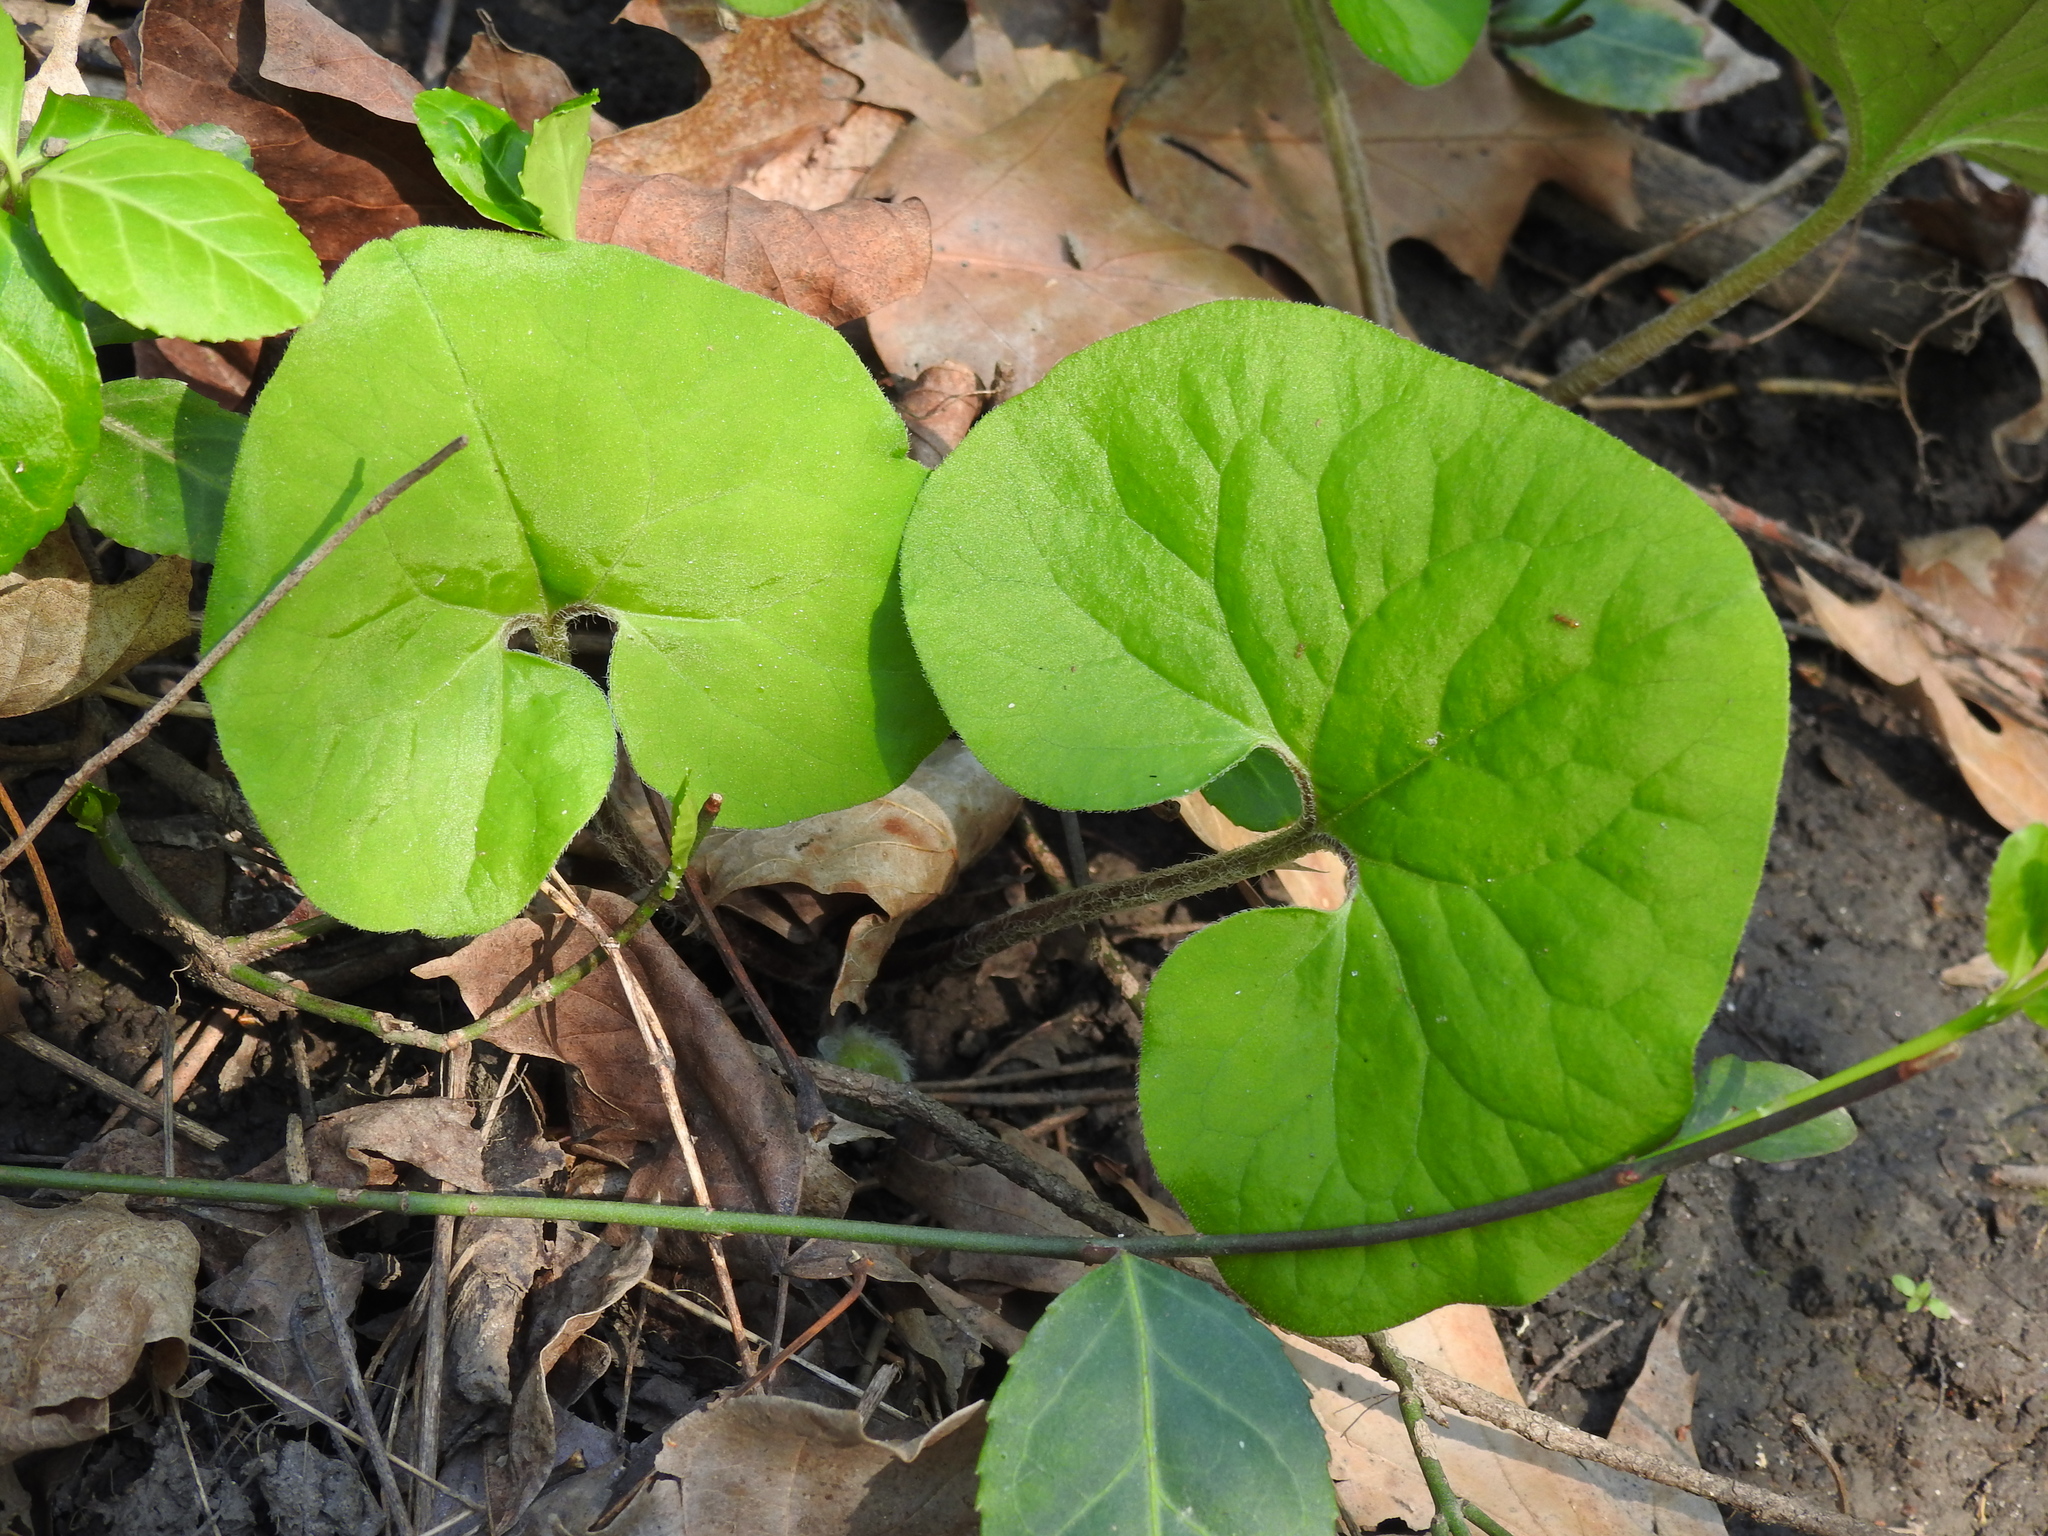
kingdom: Plantae
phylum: Tracheophyta
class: Magnoliopsida
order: Piperales
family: Aristolochiaceae
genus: Asarum
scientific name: Asarum canadense
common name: Wild ginger
